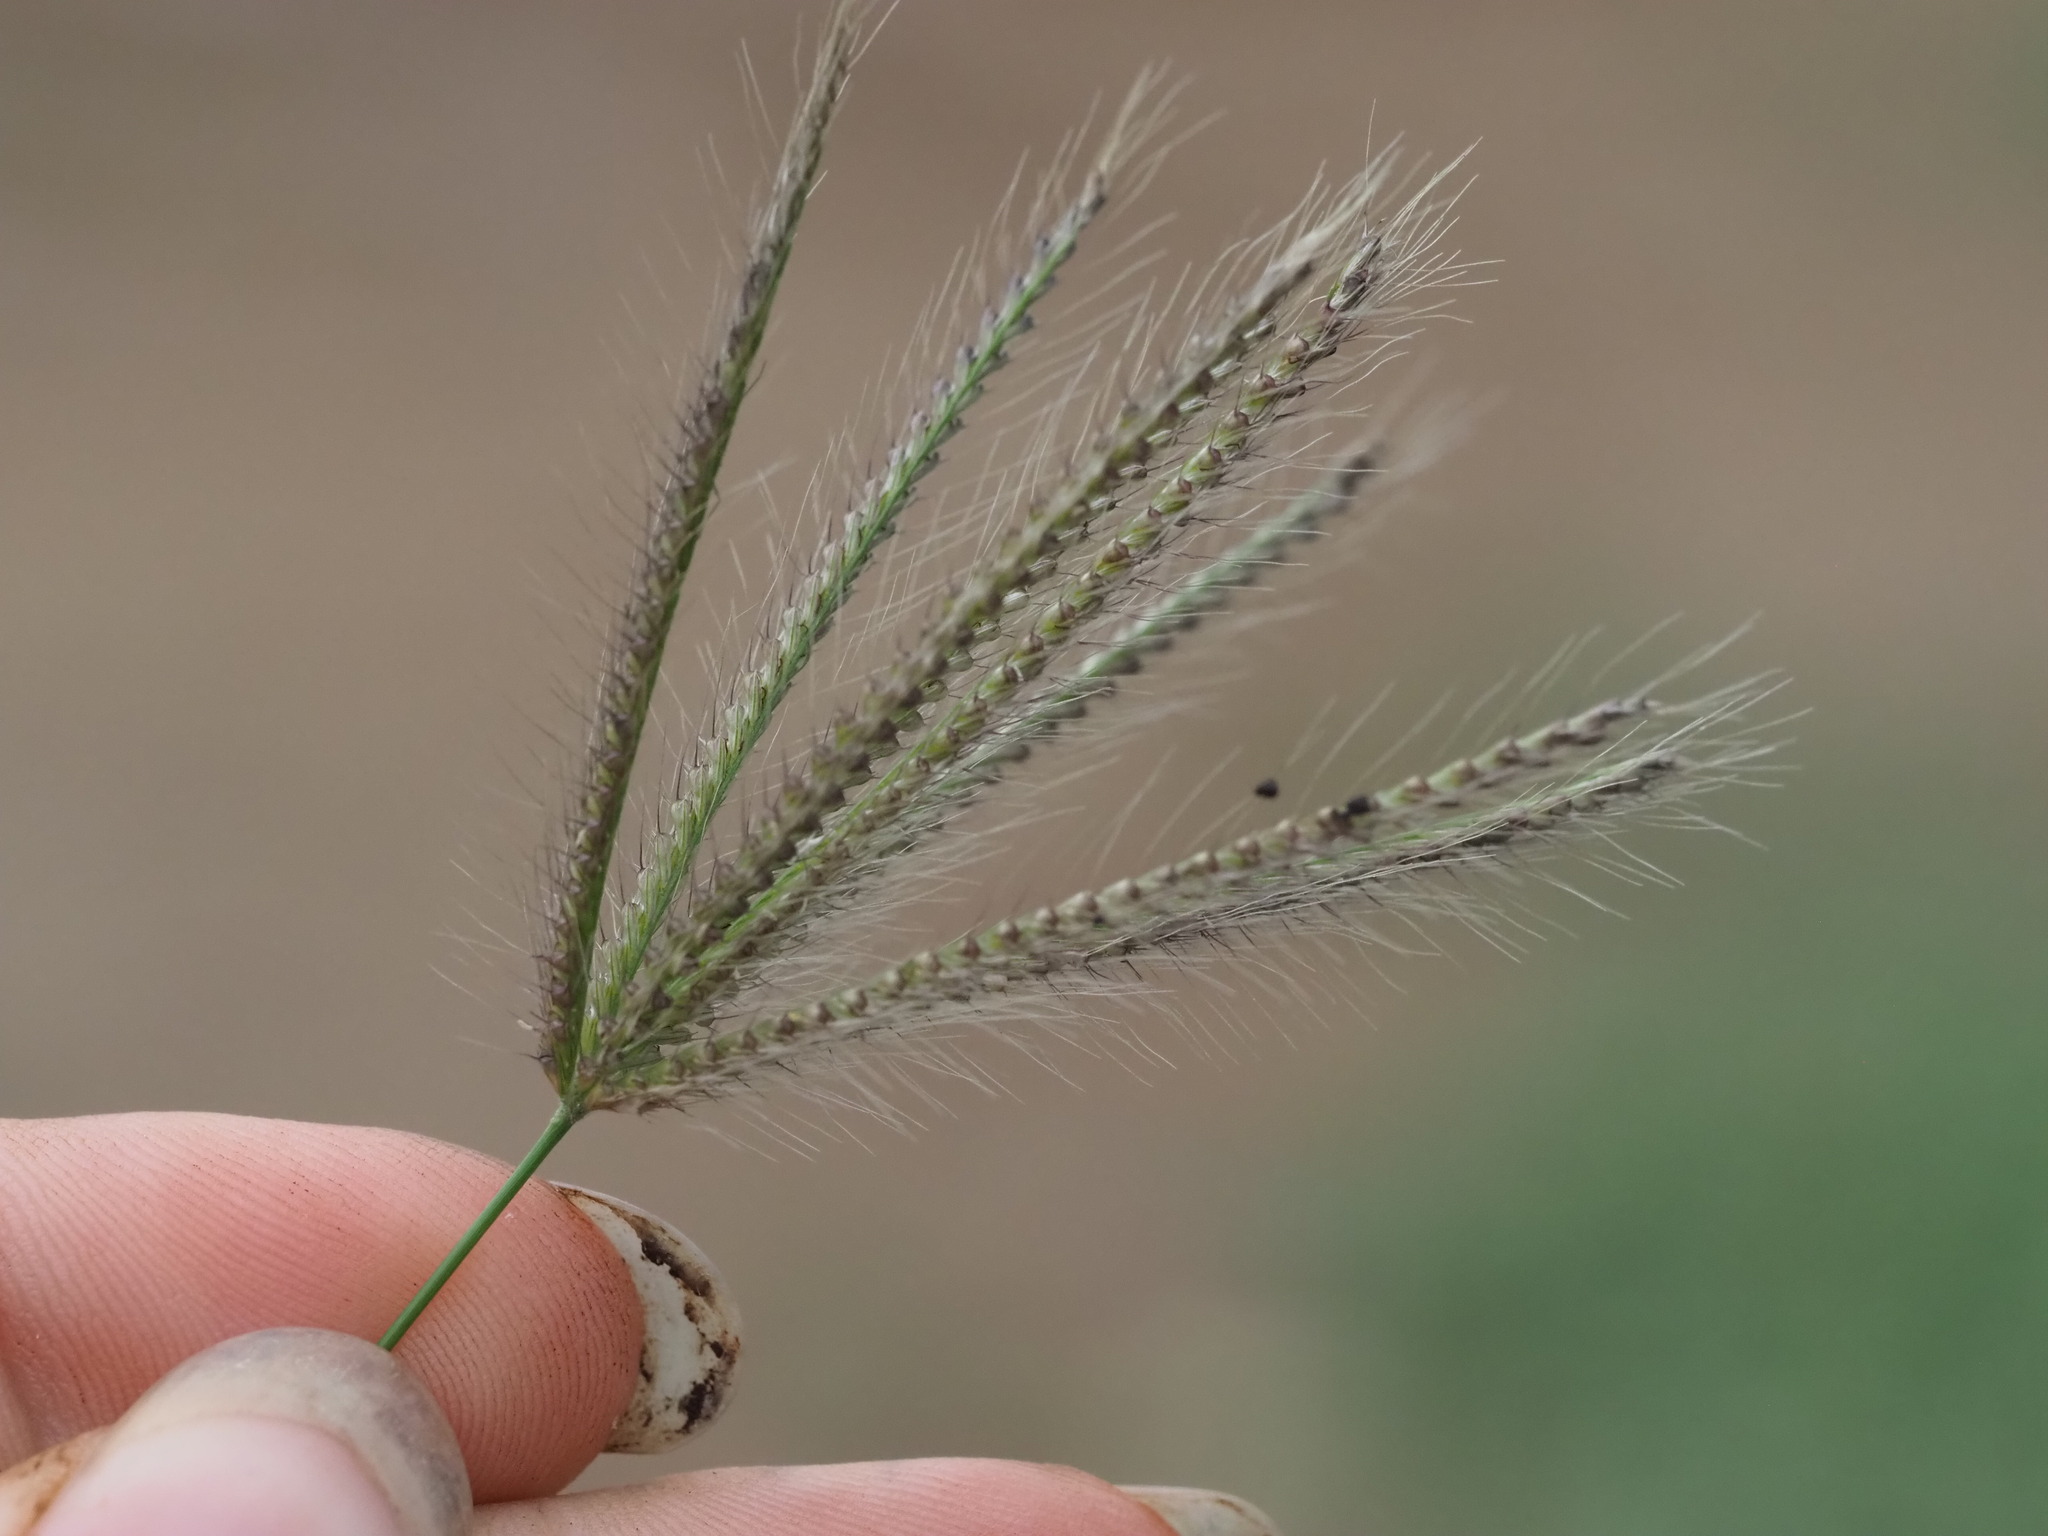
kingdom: Plantae
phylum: Tracheophyta
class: Liliopsida
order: Poales
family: Poaceae
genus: Chloris
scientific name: Chloris barbata
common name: Swollen fingergrass
